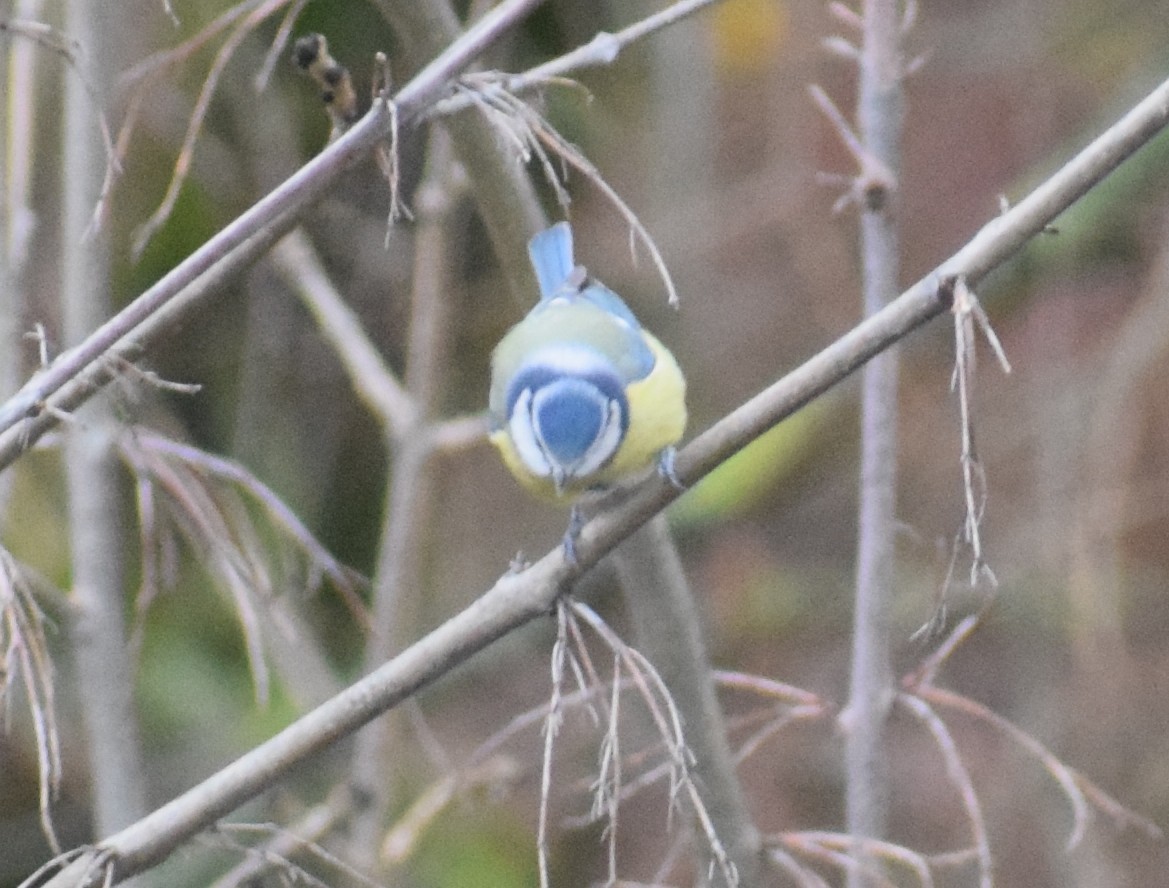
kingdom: Animalia
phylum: Chordata
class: Aves
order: Passeriformes
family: Paridae
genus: Cyanistes
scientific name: Cyanistes caeruleus
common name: Eurasian blue tit
